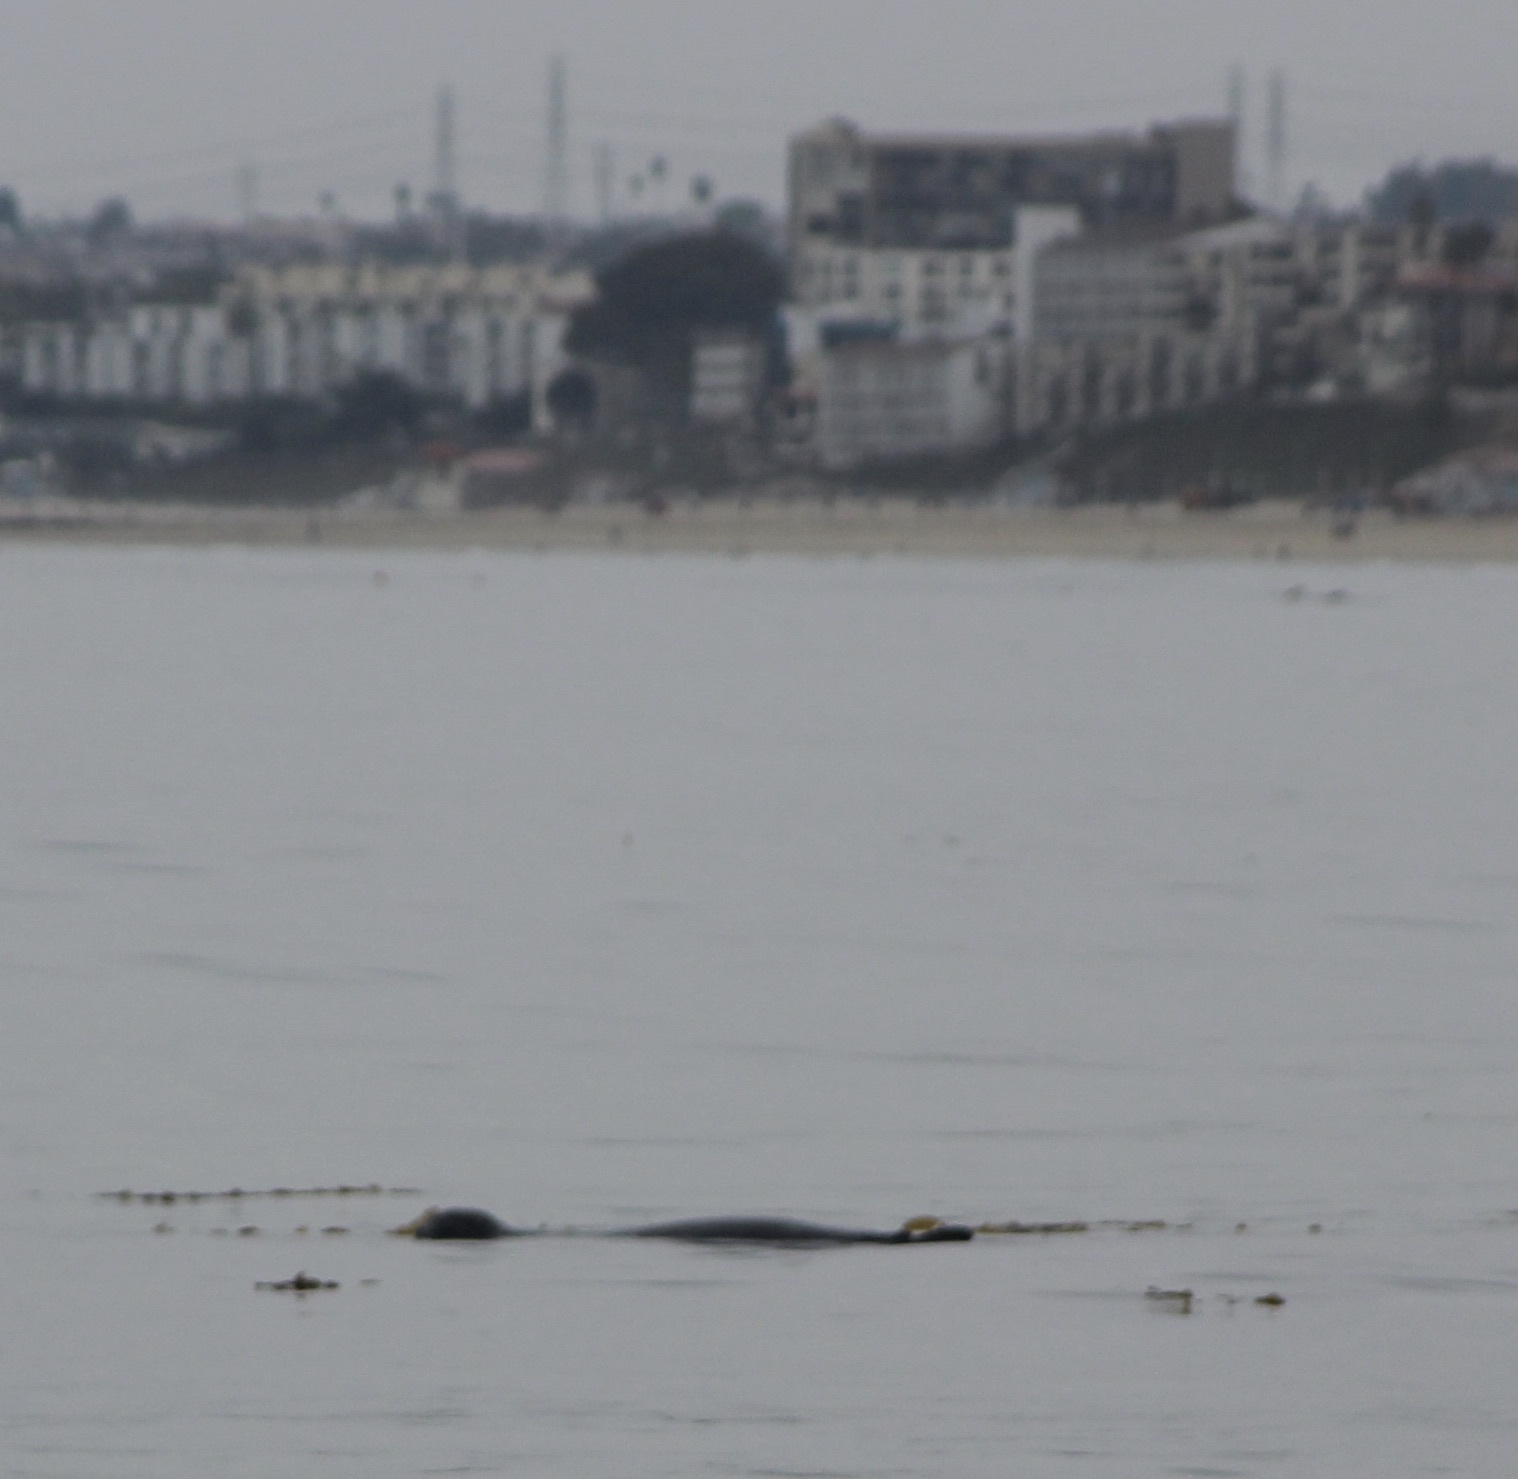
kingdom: Animalia
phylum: Chordata
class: Mammalia
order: Carnivora
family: Phocidae
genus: Phoca
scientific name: Phoca vitulina
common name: Harbor seal
